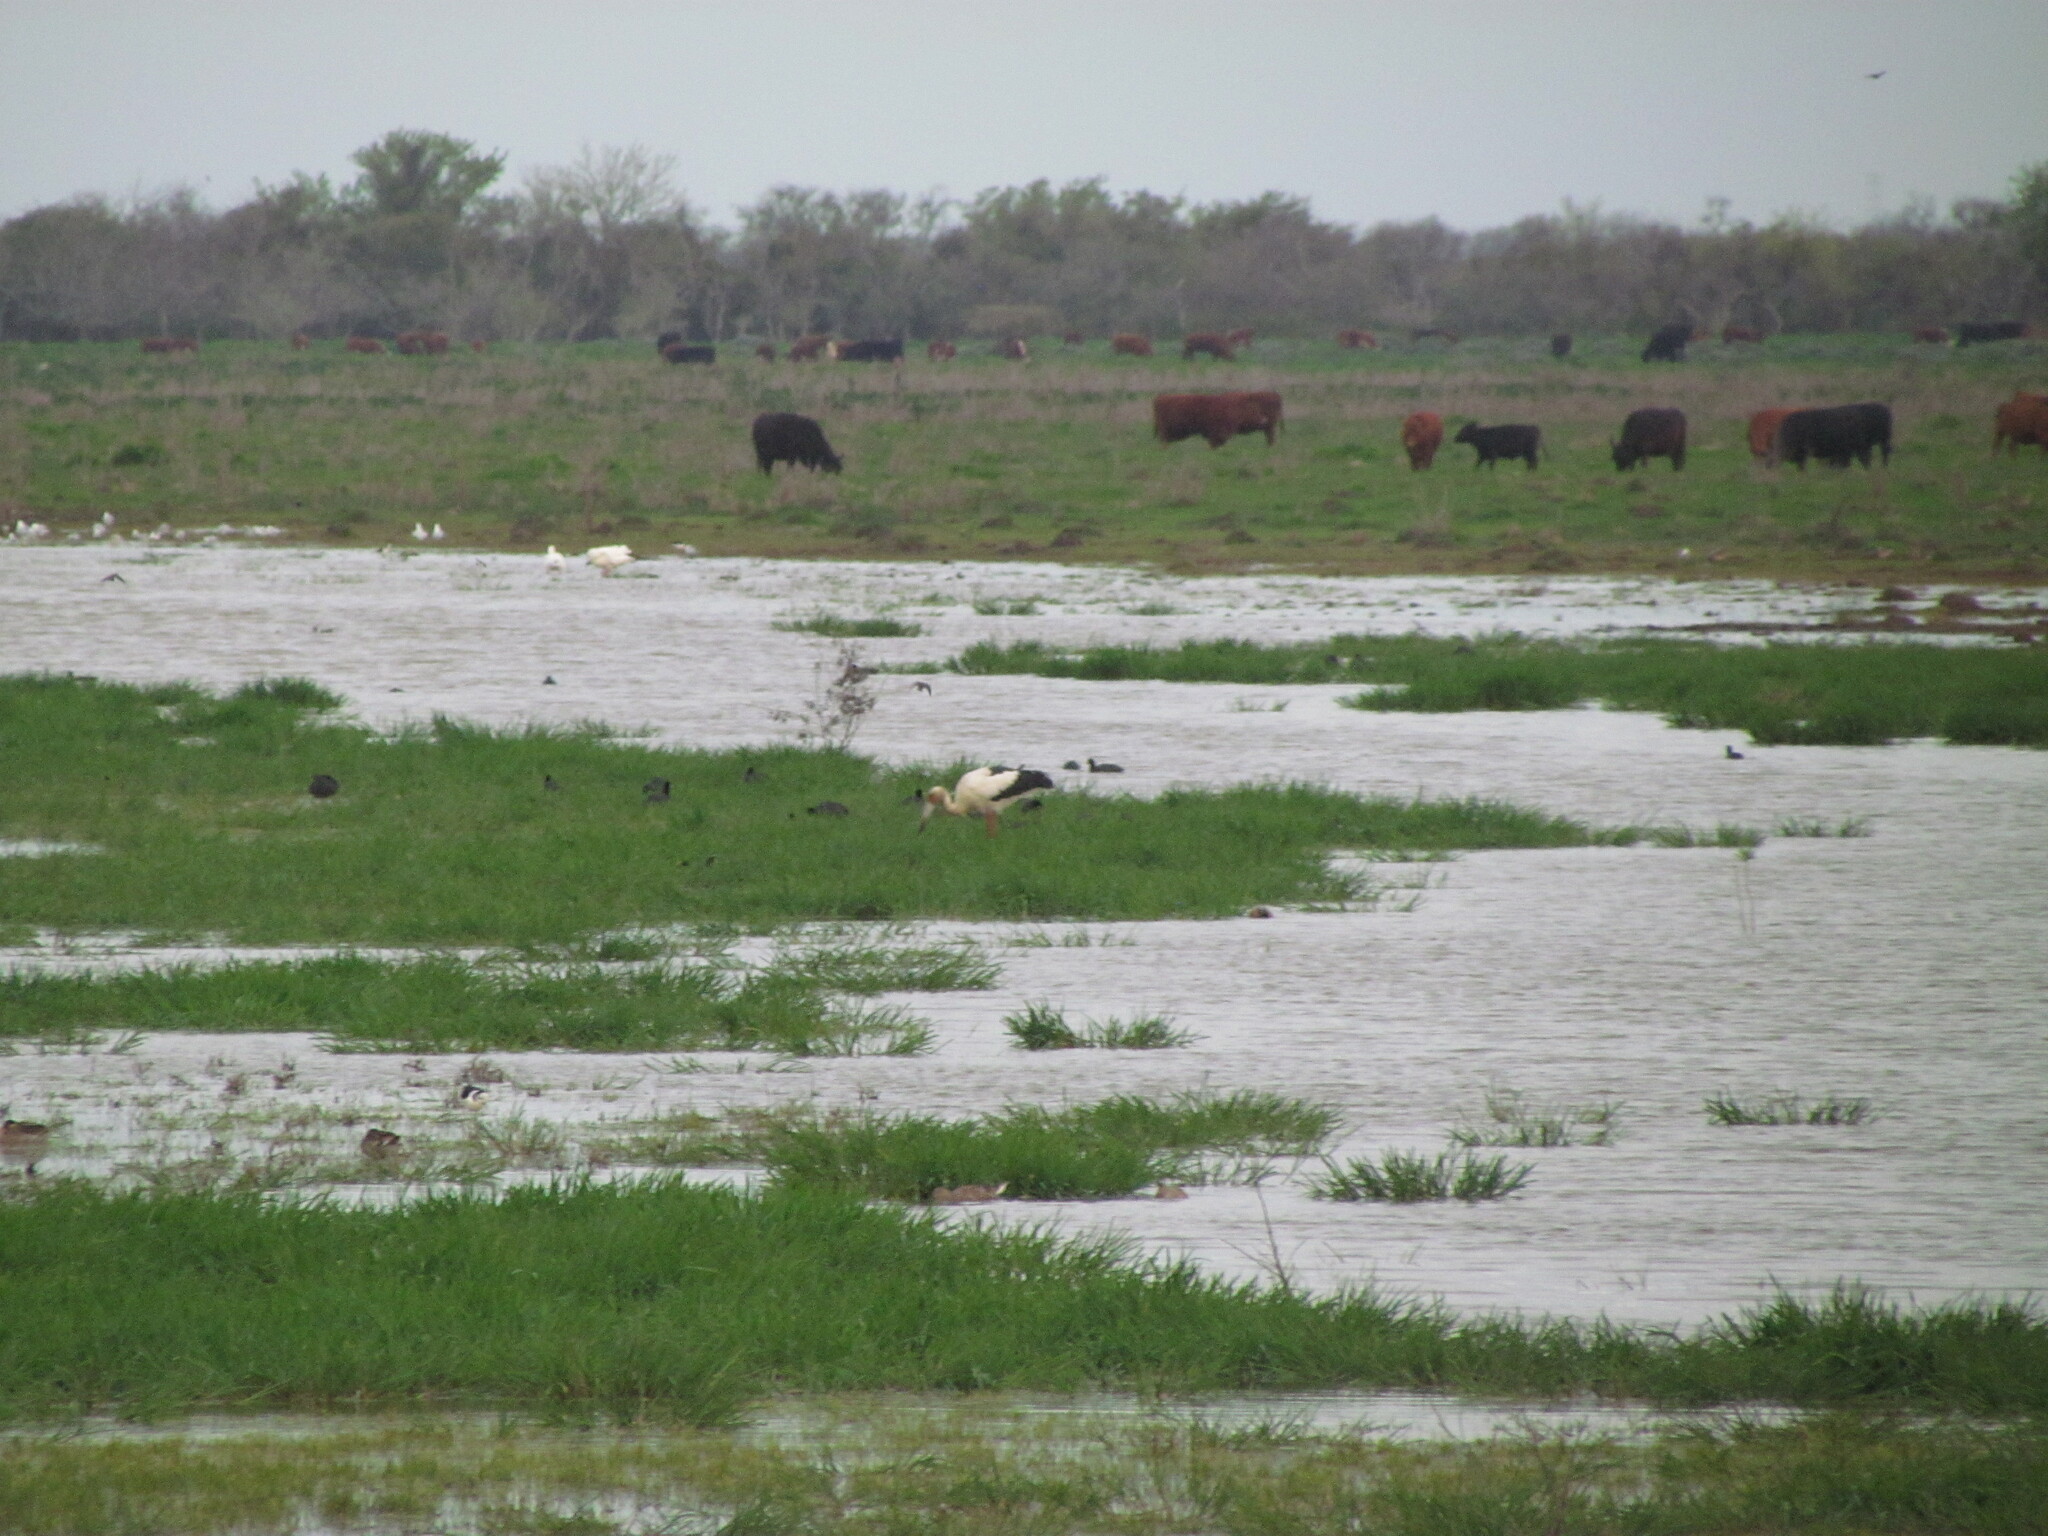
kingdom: Animalia
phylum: Chordata
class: Aves
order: Ciconiiformes
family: Ciconiidae
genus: Ciconia
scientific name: Ciconia maguari
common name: Maguari stork
